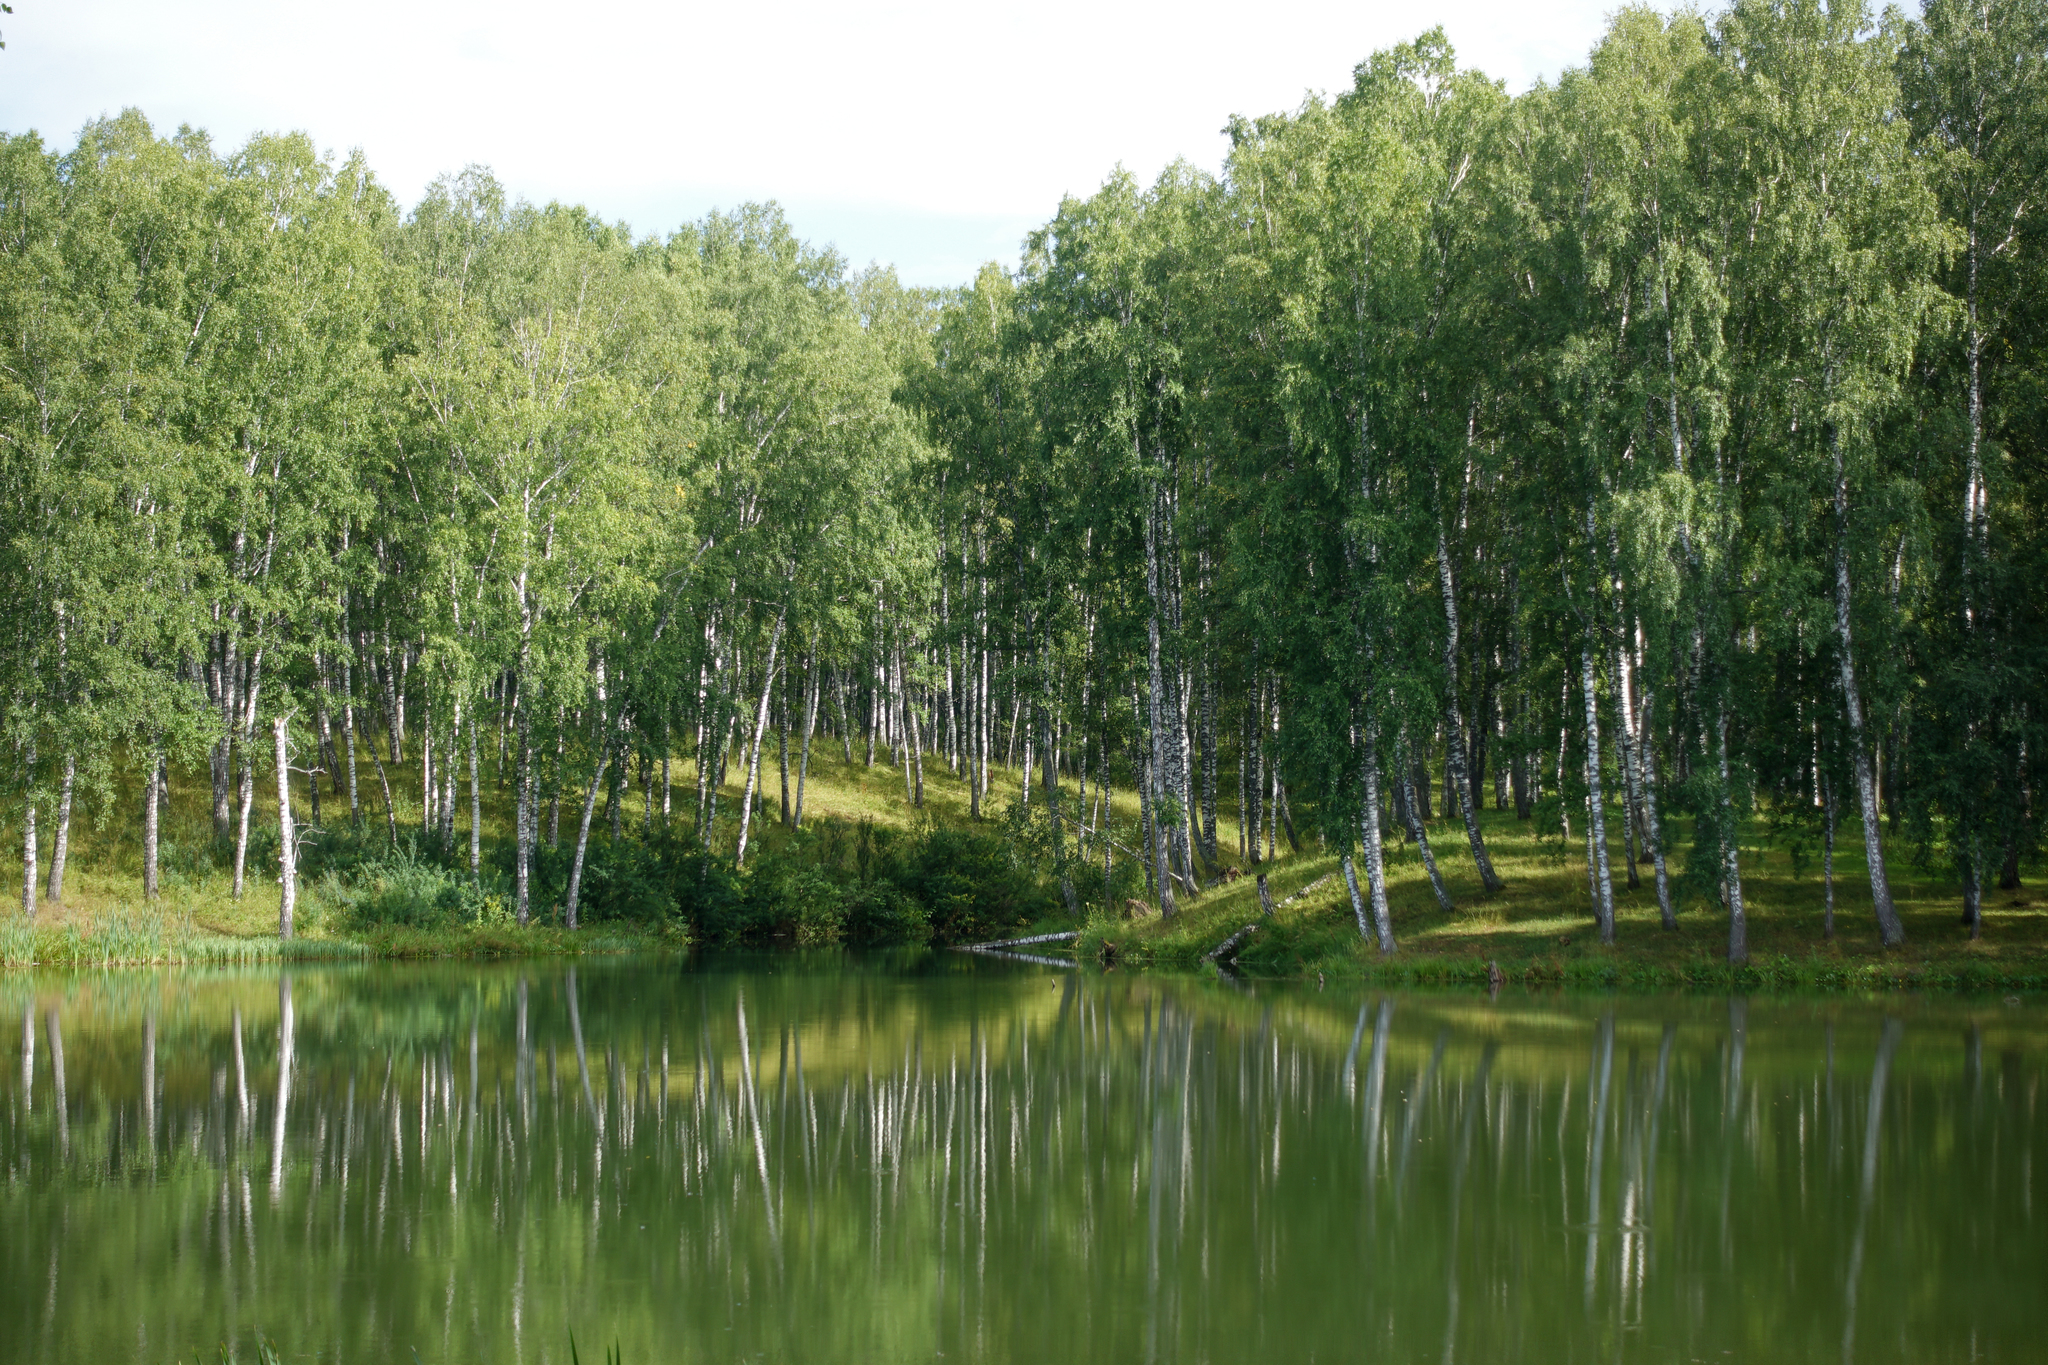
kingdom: Plantae
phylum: Tracheophyta
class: Magnoliopsida
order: Fagales
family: Betulaceae
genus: Betula
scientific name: Betula pendula
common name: Silver birch
